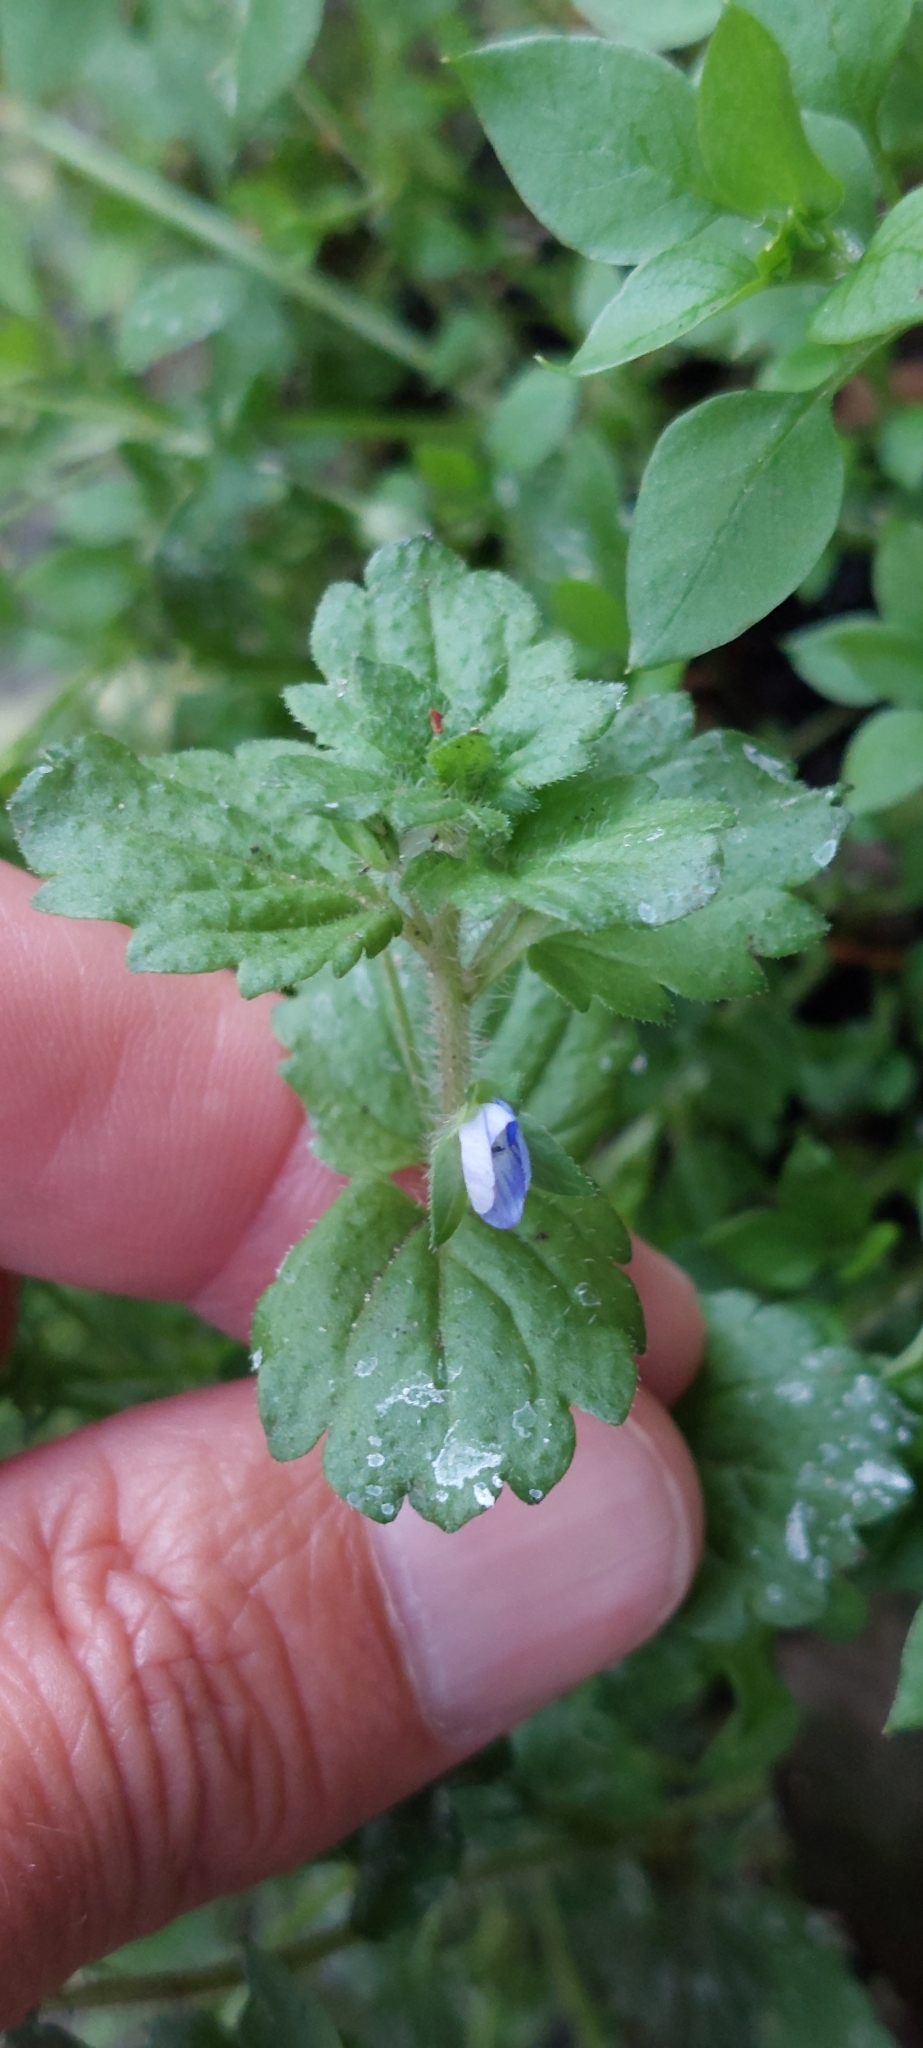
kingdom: Plantae
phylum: Tracheophyta
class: Magnoliopsida
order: Lamiales
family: Plantaginaceae
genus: Veronica
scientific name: Veronica persica
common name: Common field-speedwell
